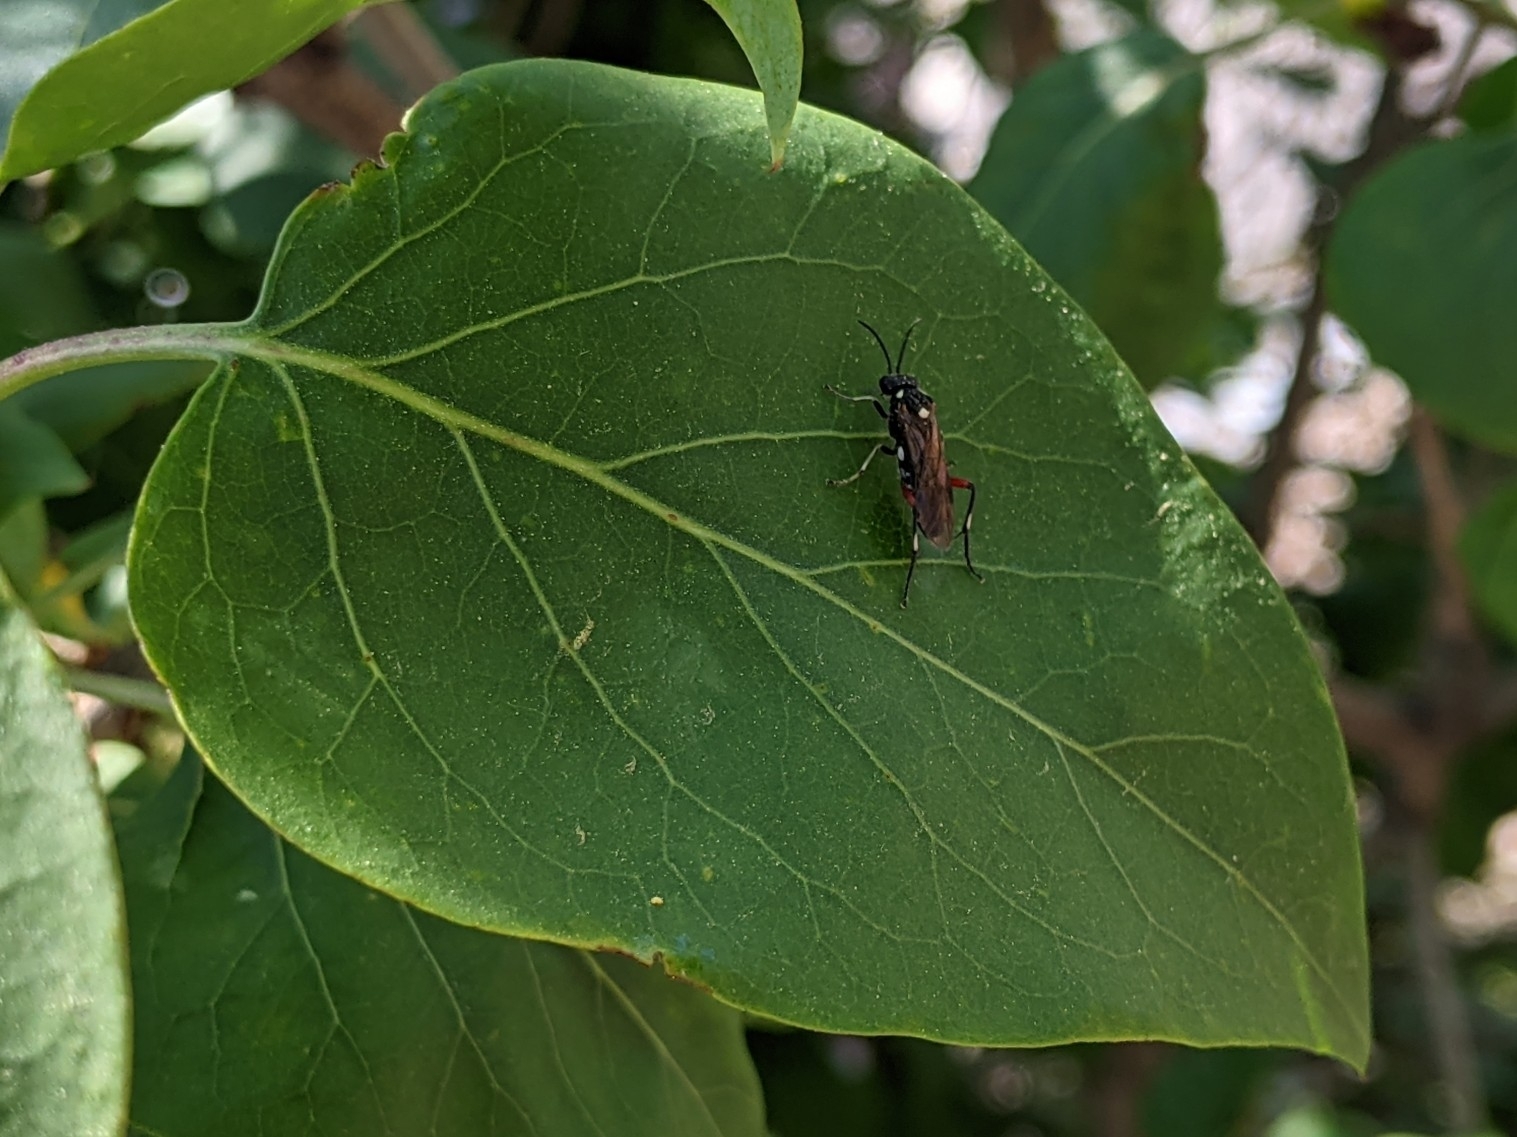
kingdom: Animalia
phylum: Arthropoda
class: Insecta
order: Hymenoptera
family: Tenthredinidae
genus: Macrophya
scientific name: Macrophya punctumalbum
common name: Sawfly
